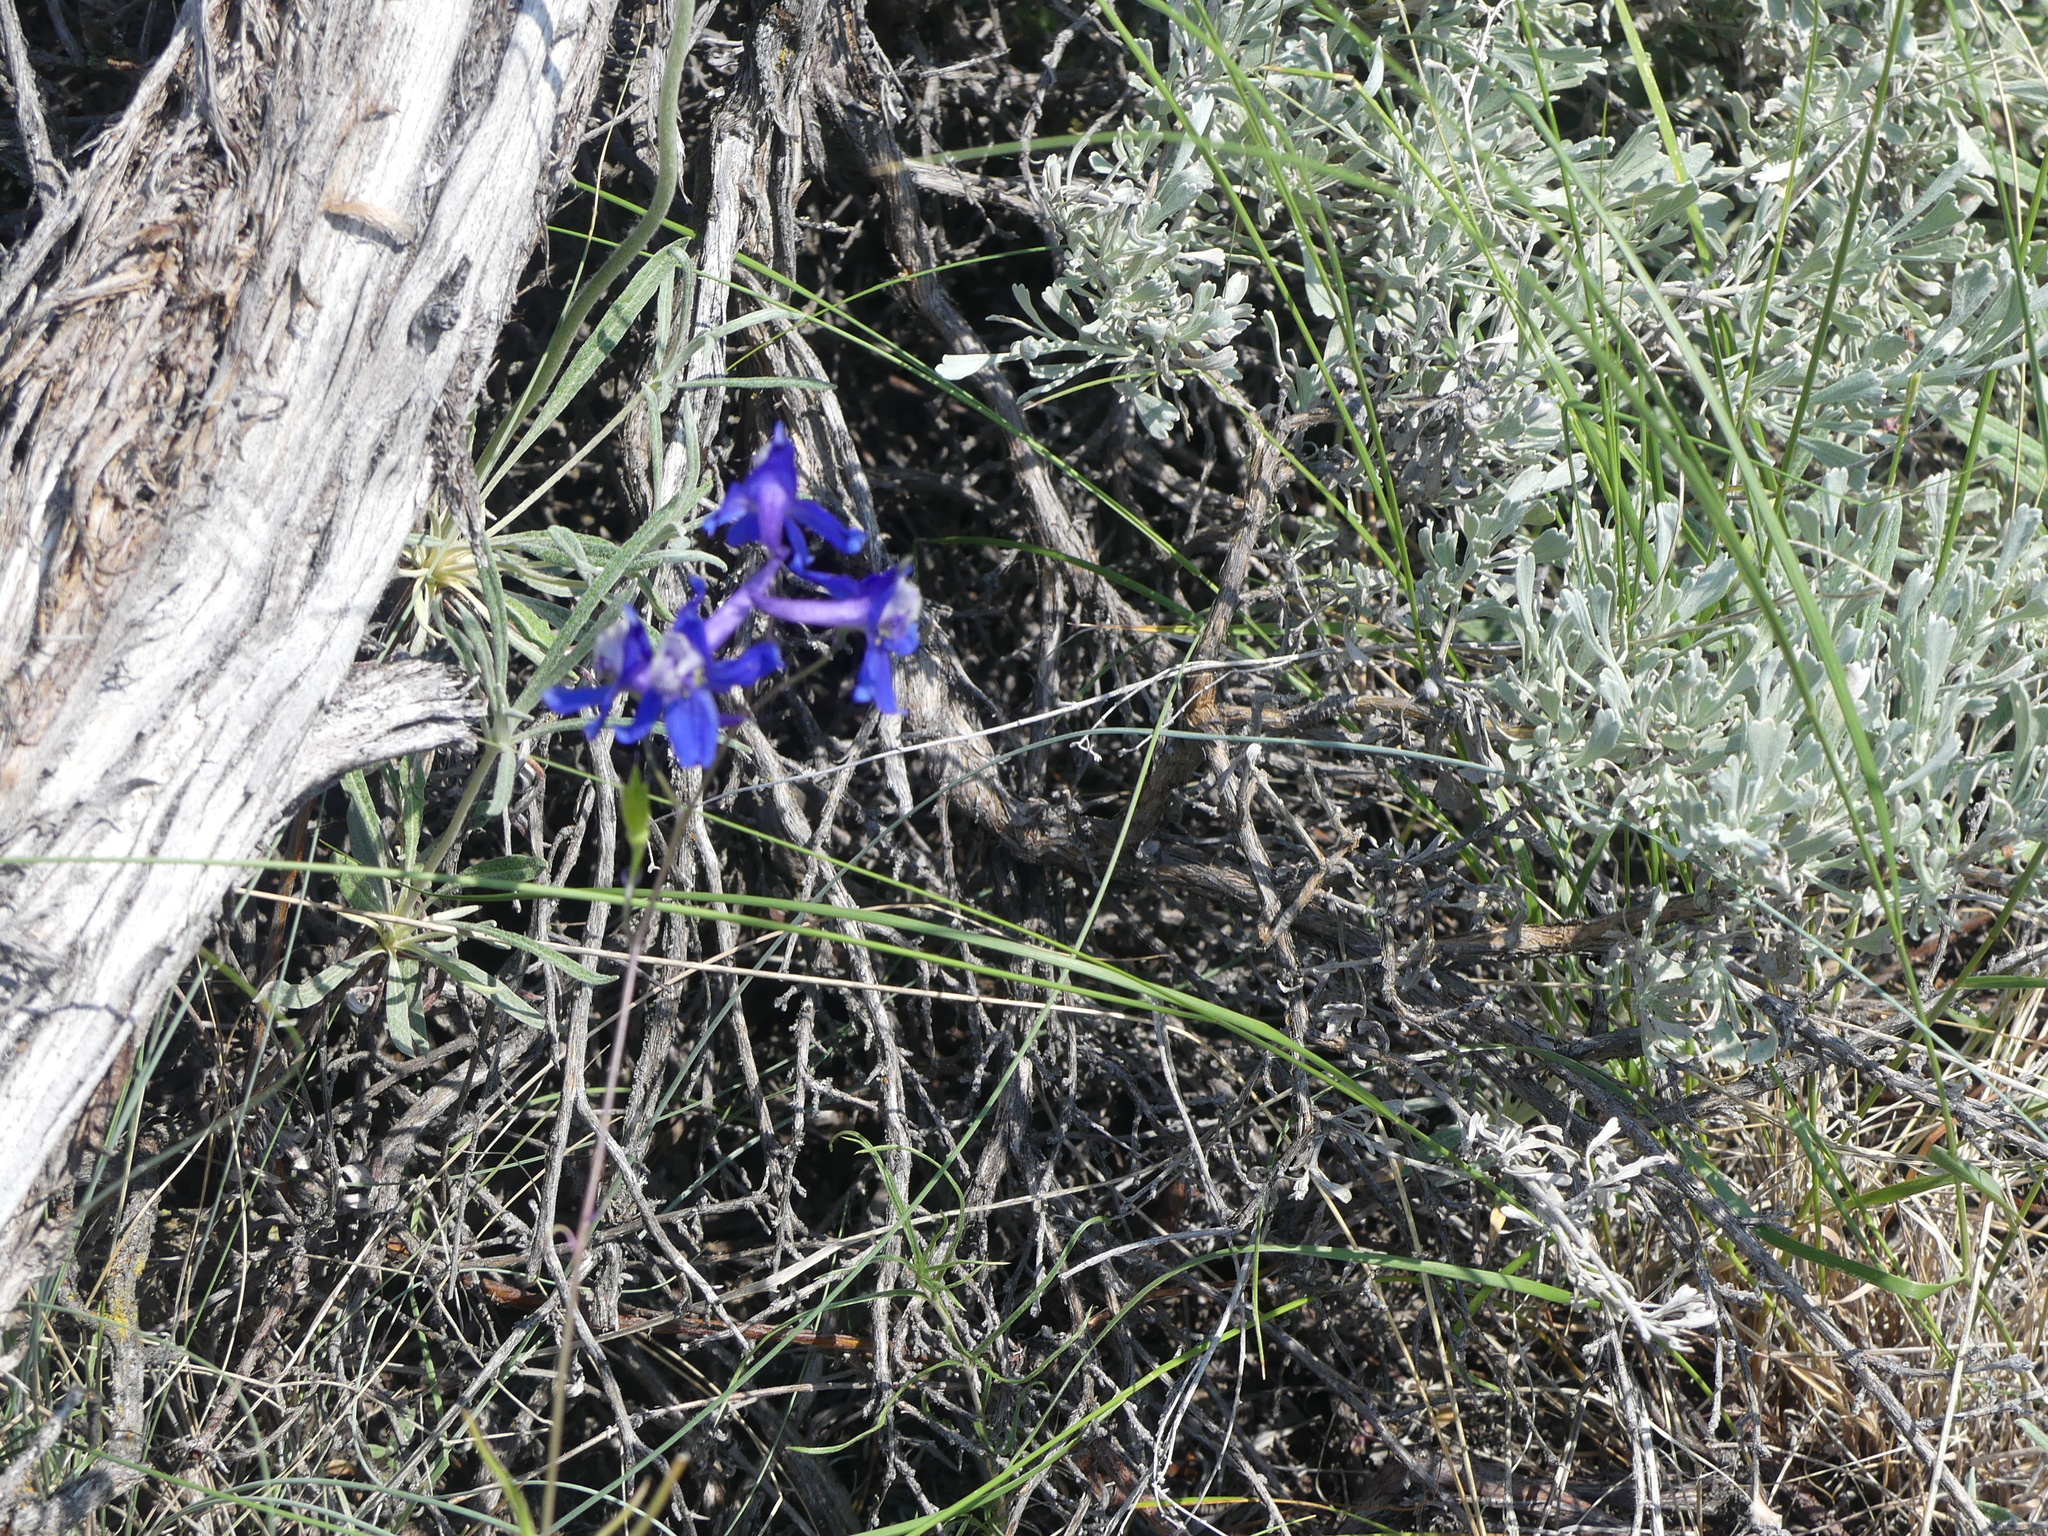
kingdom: Plantae
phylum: Tracheophyta
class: Magnoliopsida
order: Ranunculales
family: Ranunculaceae
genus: Delphinium
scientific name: Delphinium nuttallianum
